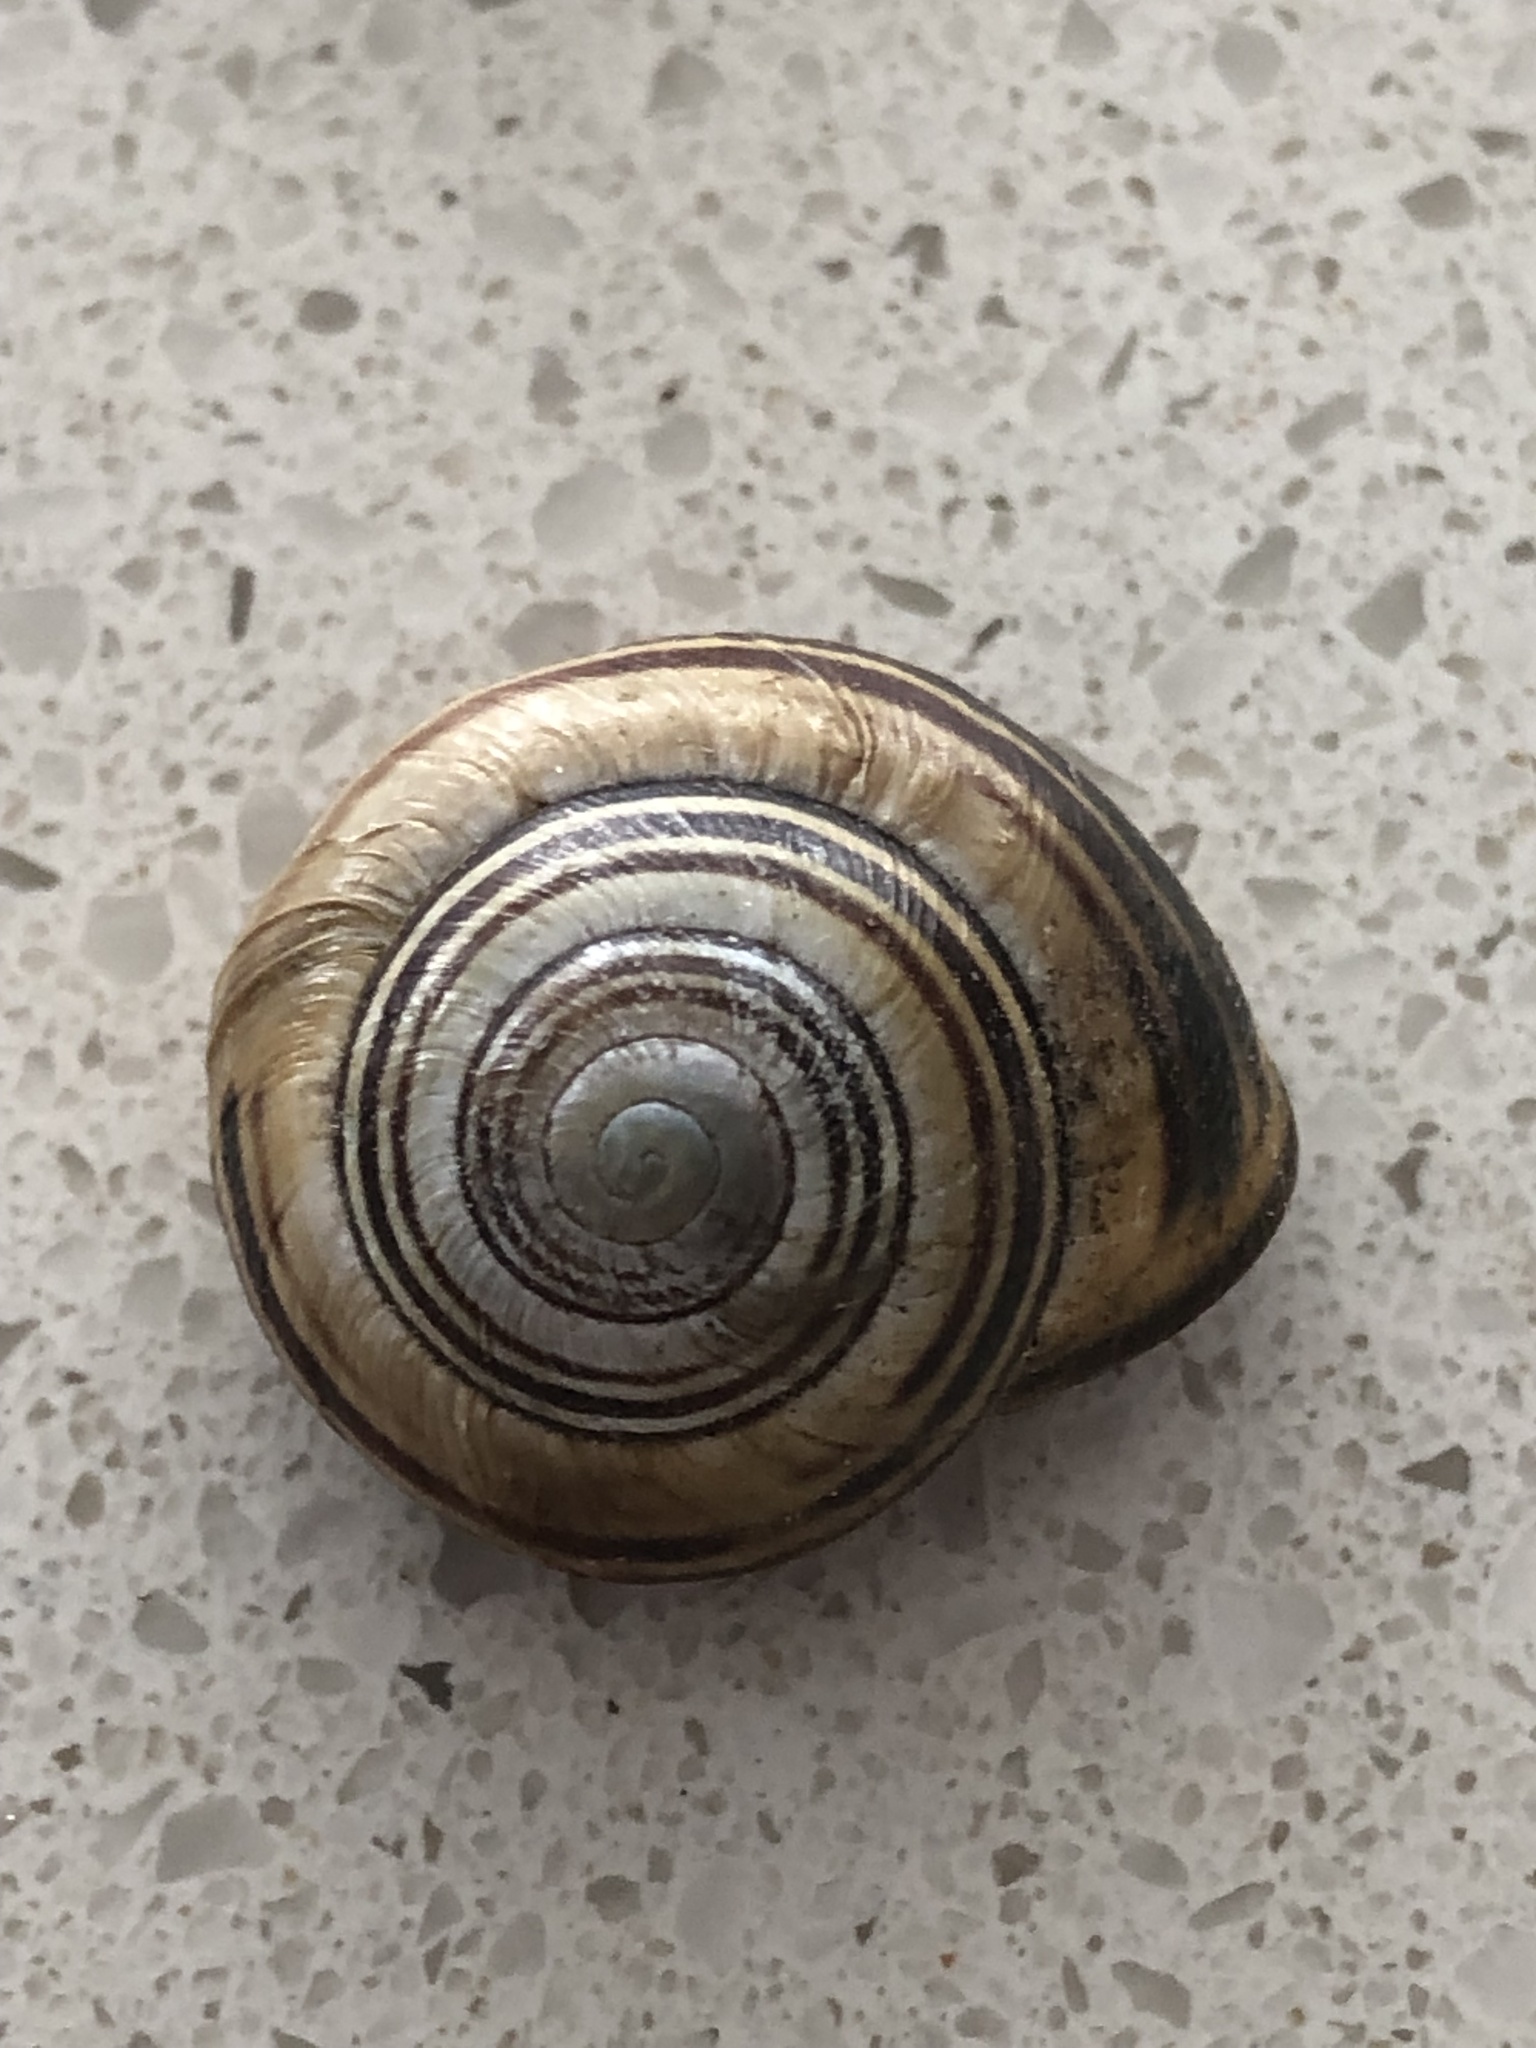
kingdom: Animalia
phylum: Mollusca
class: Gastropoda
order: Stylommatophora
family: Helicidae
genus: Cepaea
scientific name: Cepaea nemoralis
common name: Grovesnail
